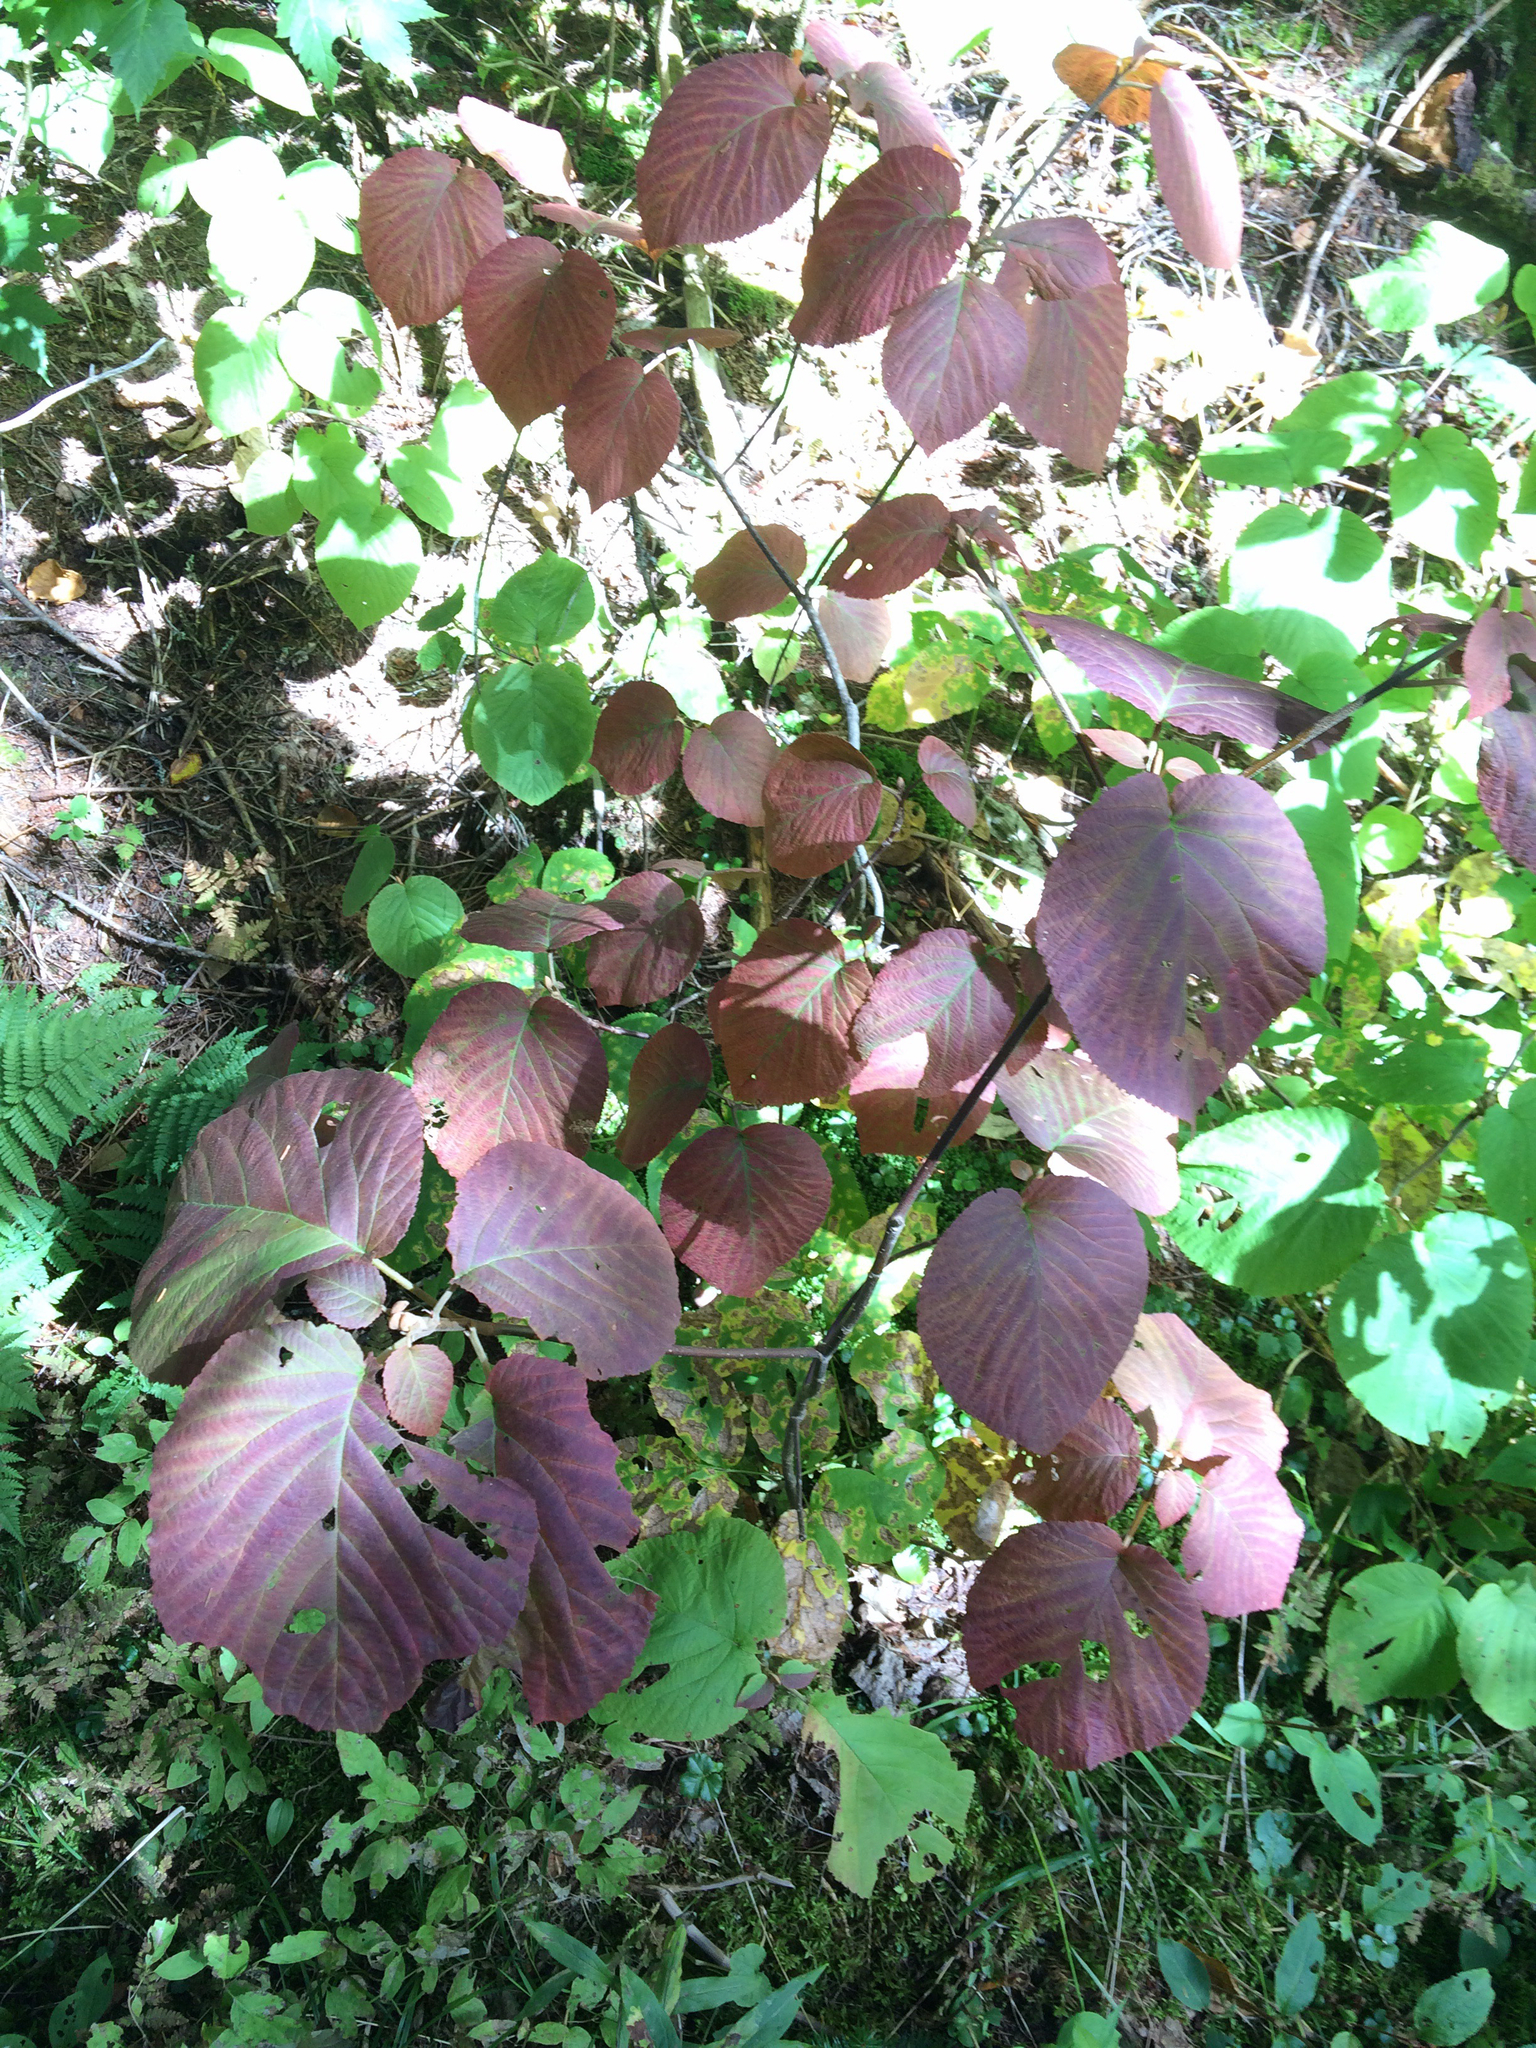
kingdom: Plantae
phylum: Tracheophyta
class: Magnoliopsida
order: Dipsacales
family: Viburnaceae
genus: Viburnum
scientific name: Viburnum lantanoides
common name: Hobblebush
